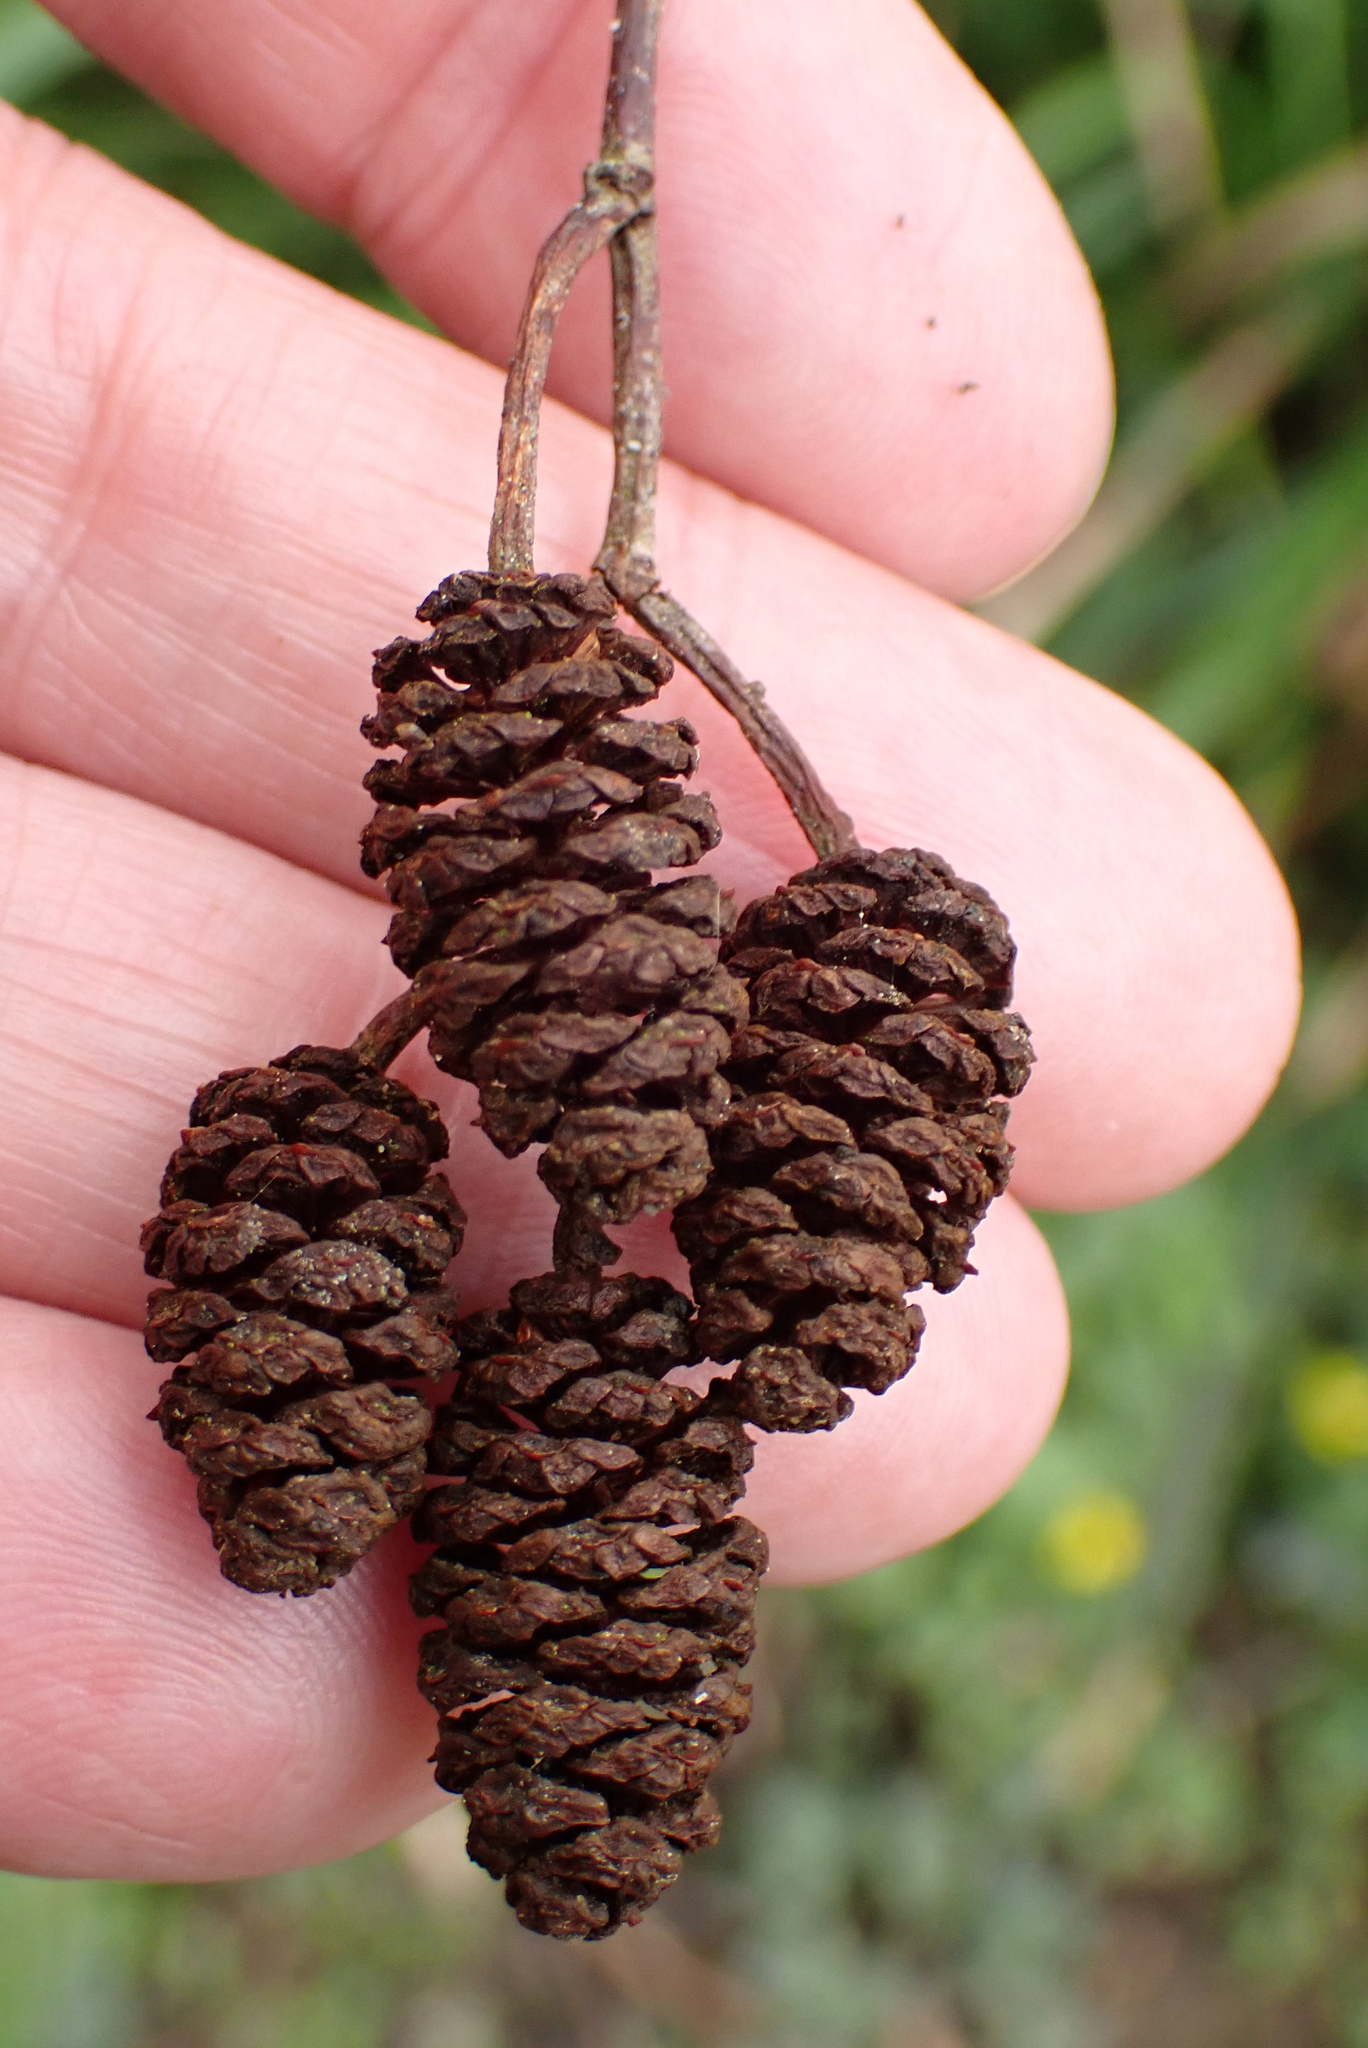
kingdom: Plantae
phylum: Tracheophyta
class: Magnoliopsida
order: Fagales
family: Betulaceae
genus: Alnus
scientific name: Alnus glutinosa
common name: Black alder
